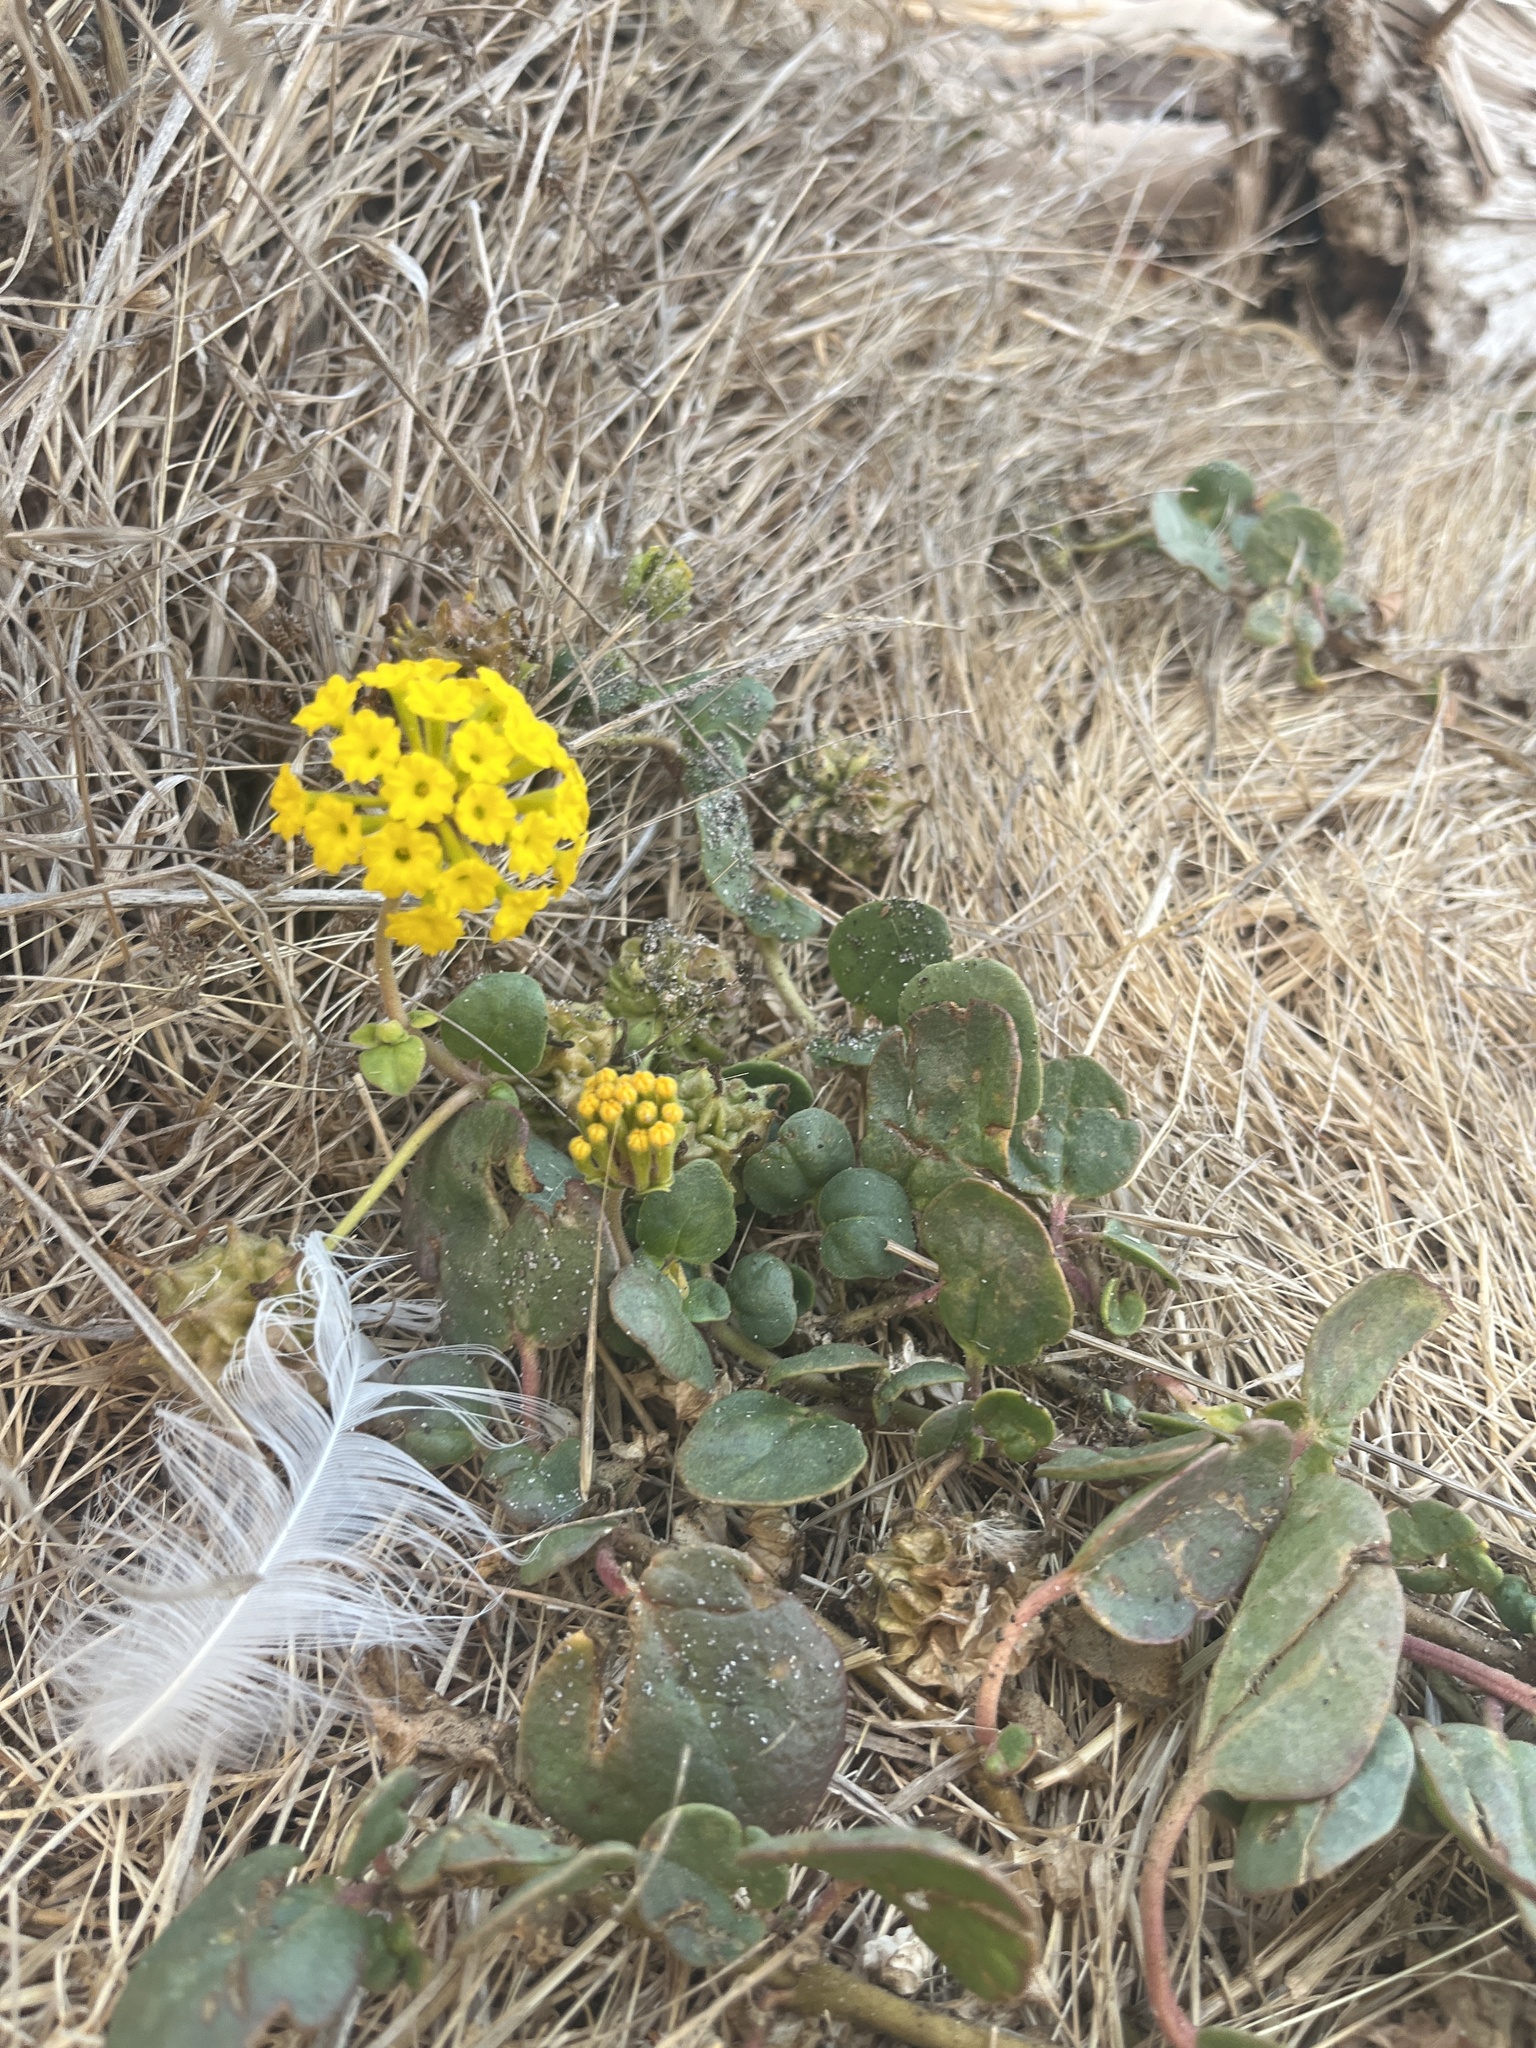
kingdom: Plantae
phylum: Tracheophyta
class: Magnoliopsida
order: Caryophyllales
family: Nyctaginaceae
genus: Abronia
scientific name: Abronia latifolia
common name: Yellow sand-verbena
